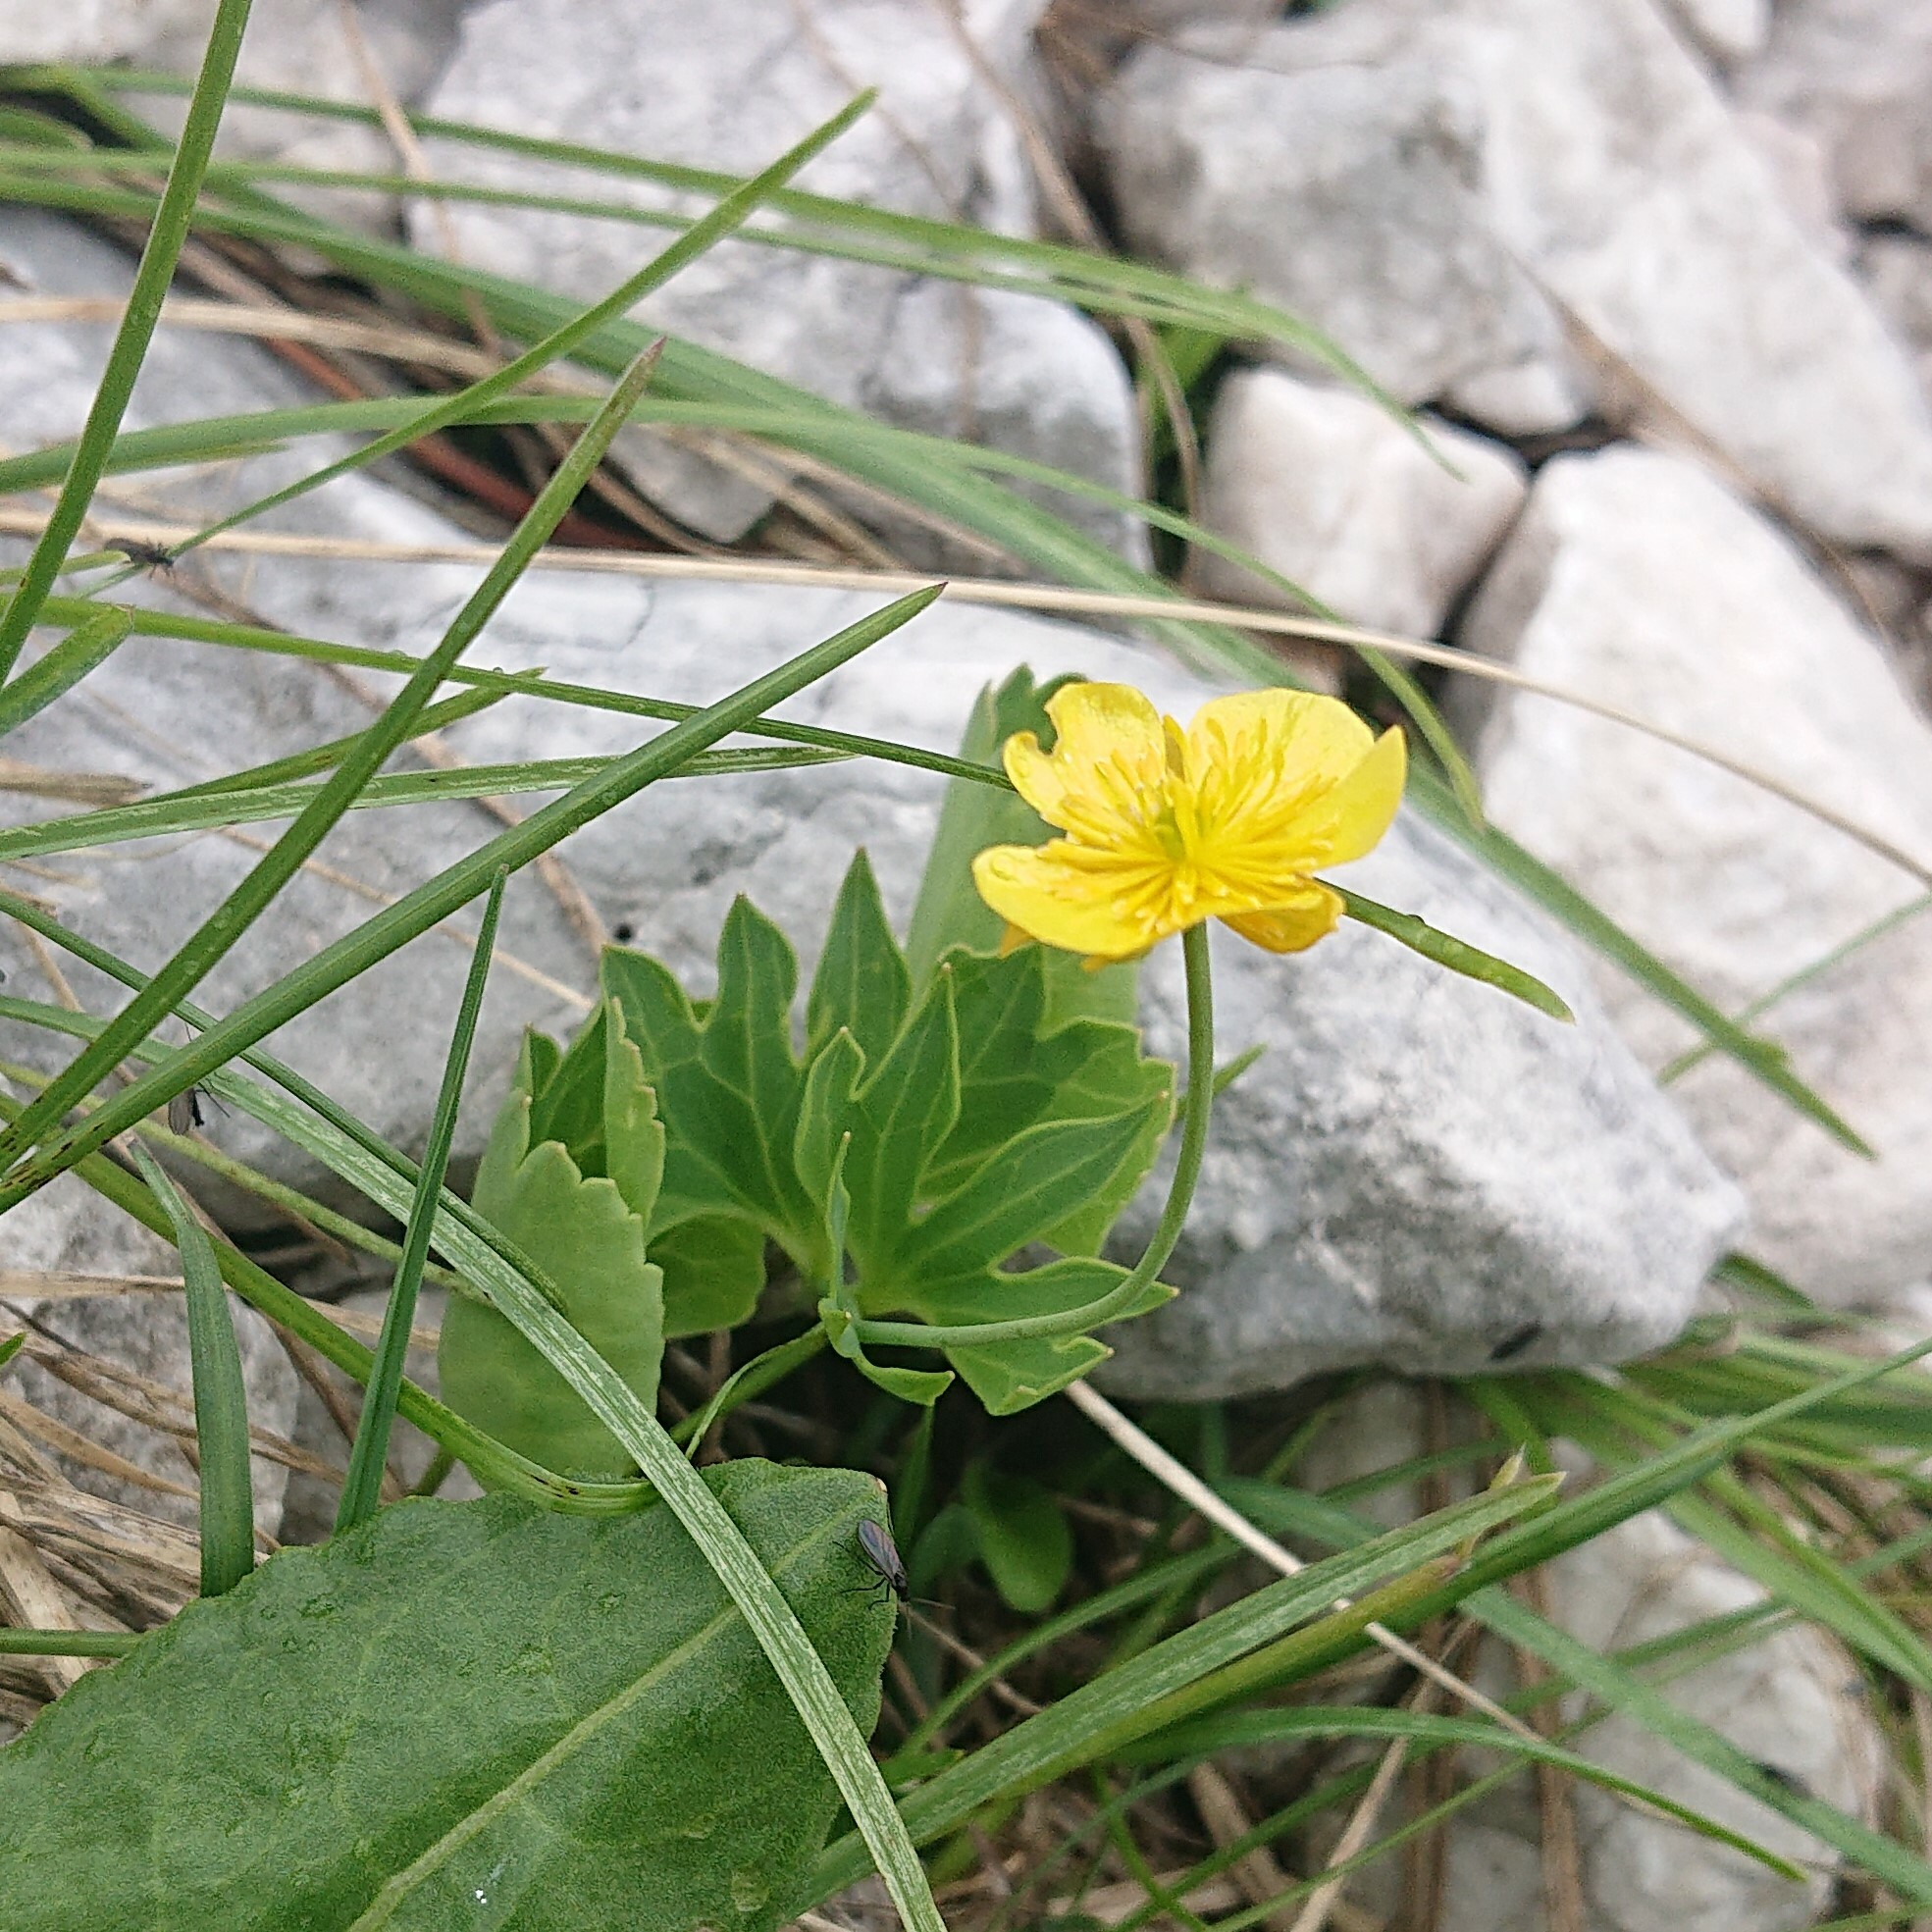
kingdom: Plantae
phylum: Tracheophyta
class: Magnoliopsida
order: Ranunculales
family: Ranunculaceae
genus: Ranunculus
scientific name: Ranunculus hybridus
